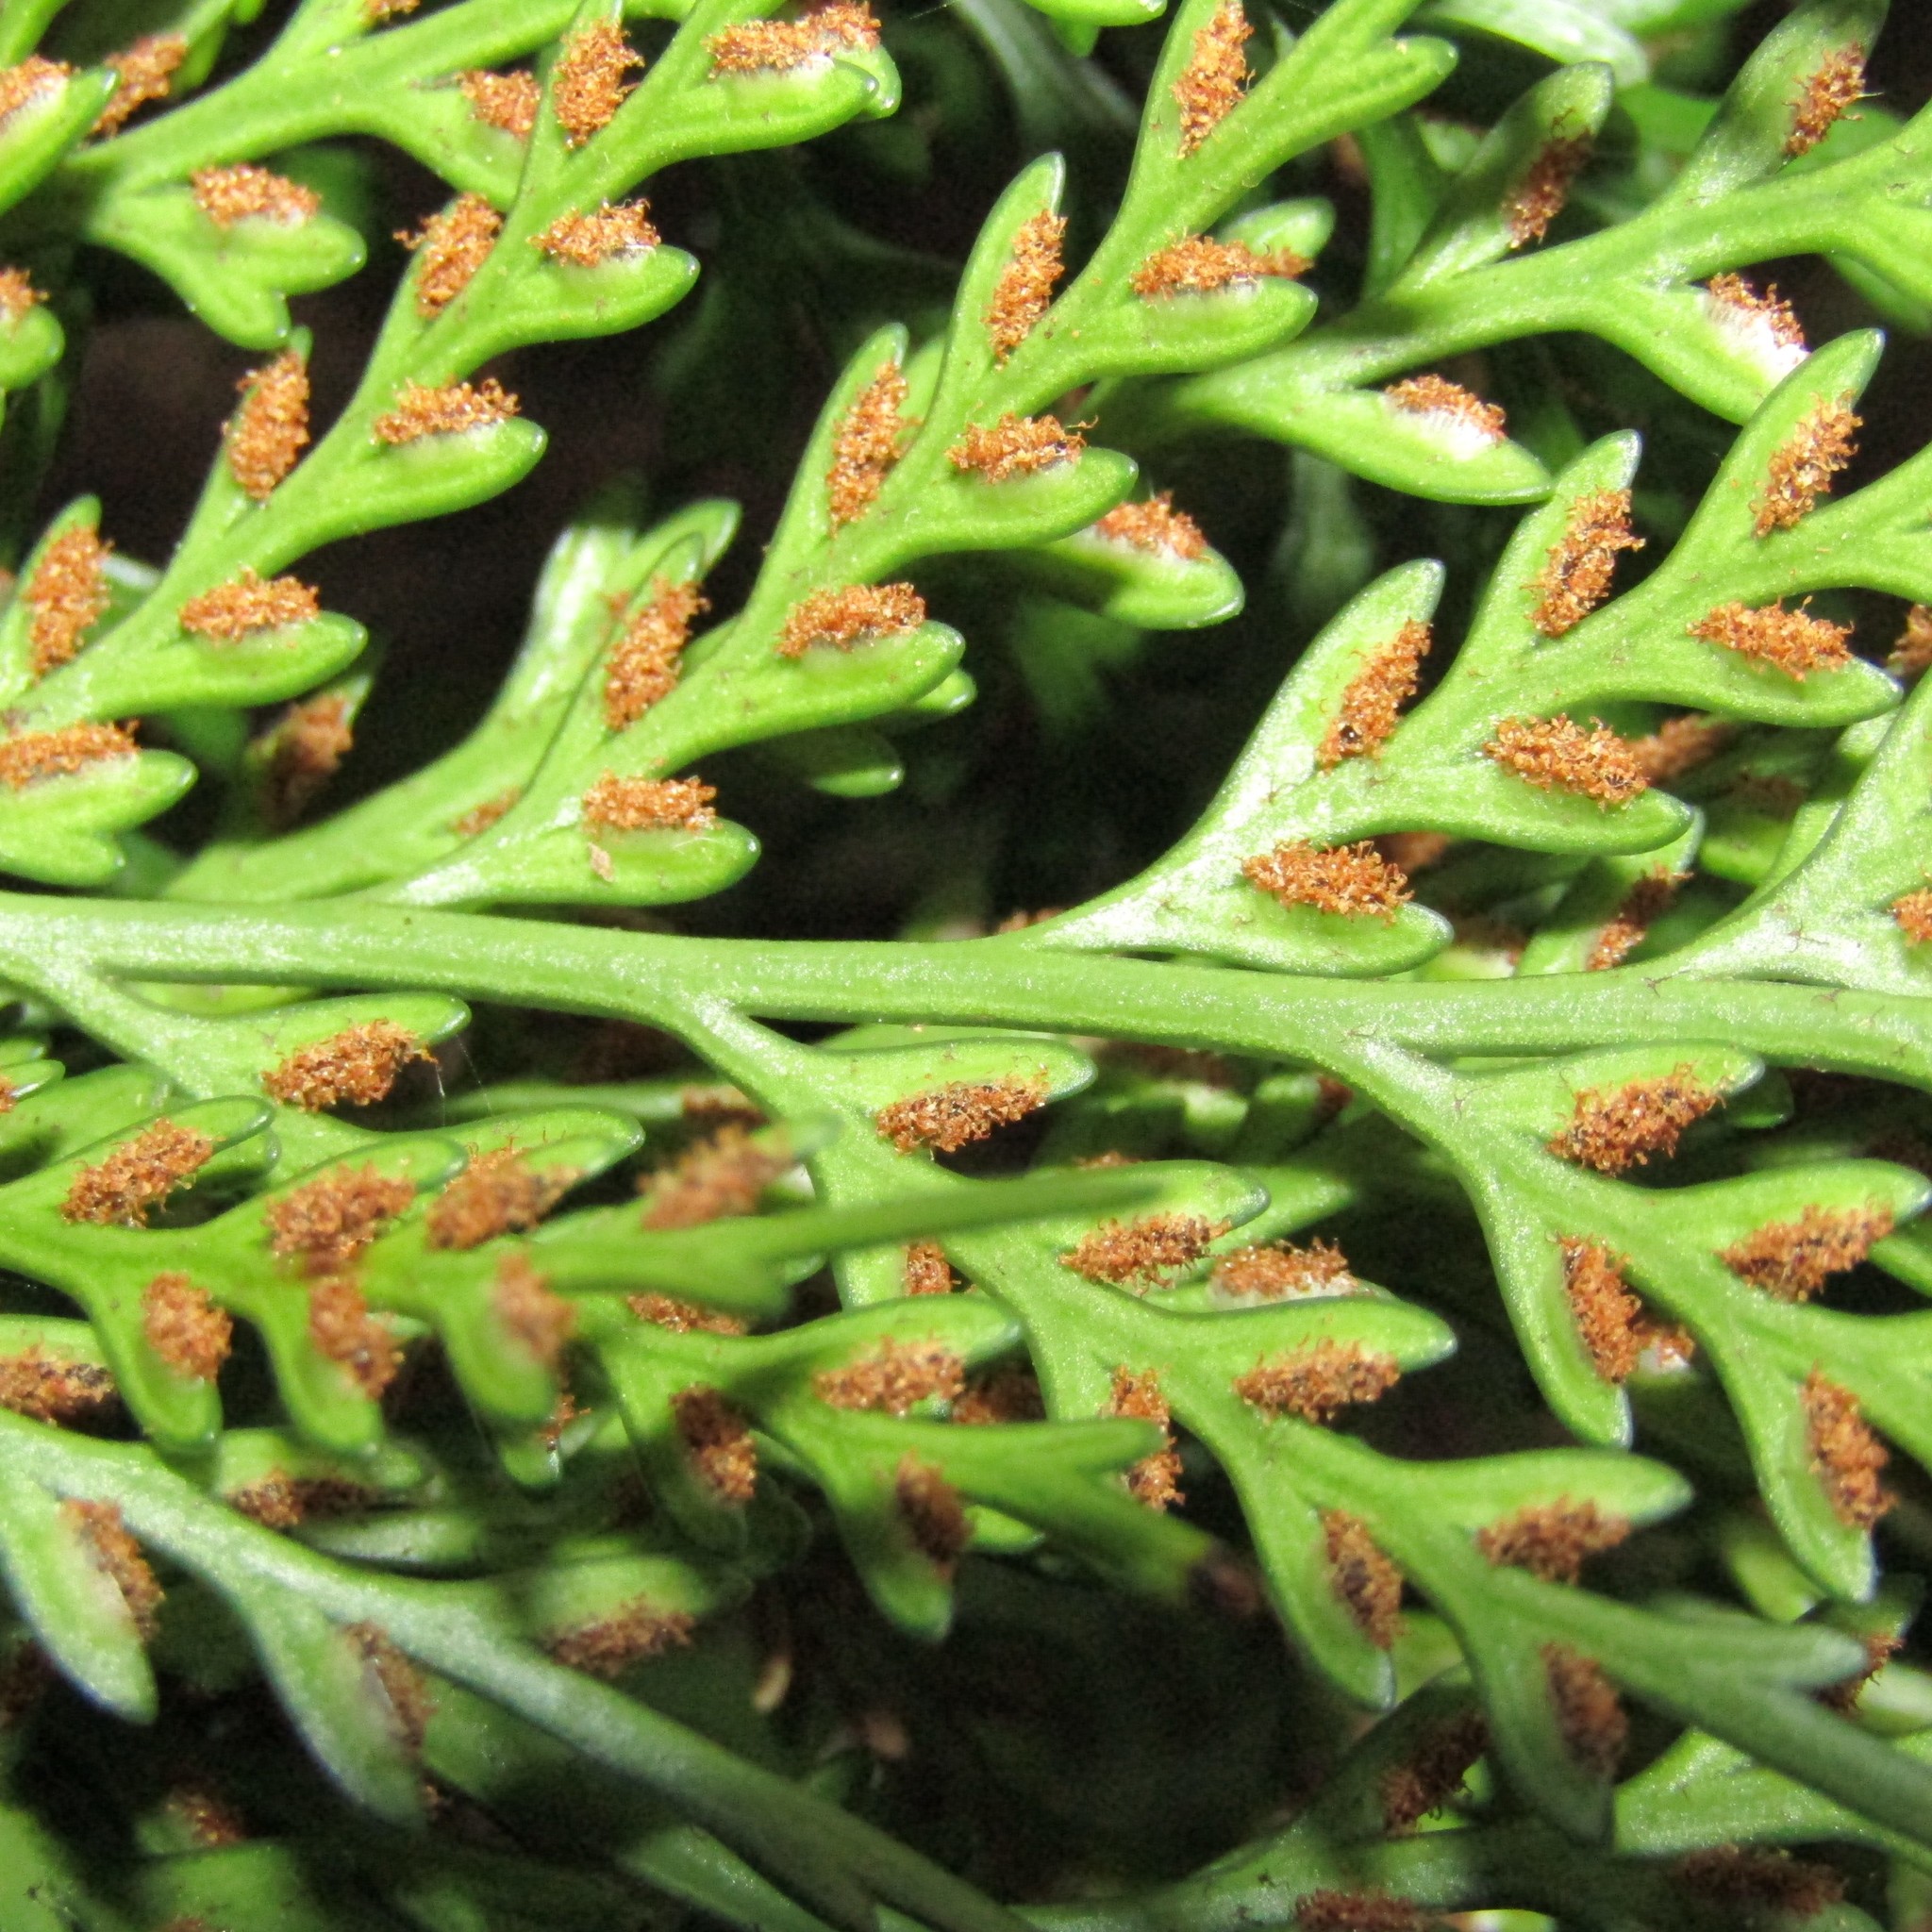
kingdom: Plantae
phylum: Tracheophyta
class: Polypodiopsida
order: Polypodiales
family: Aspleniaceae
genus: Asplenium
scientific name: Asplenium flaccidum
